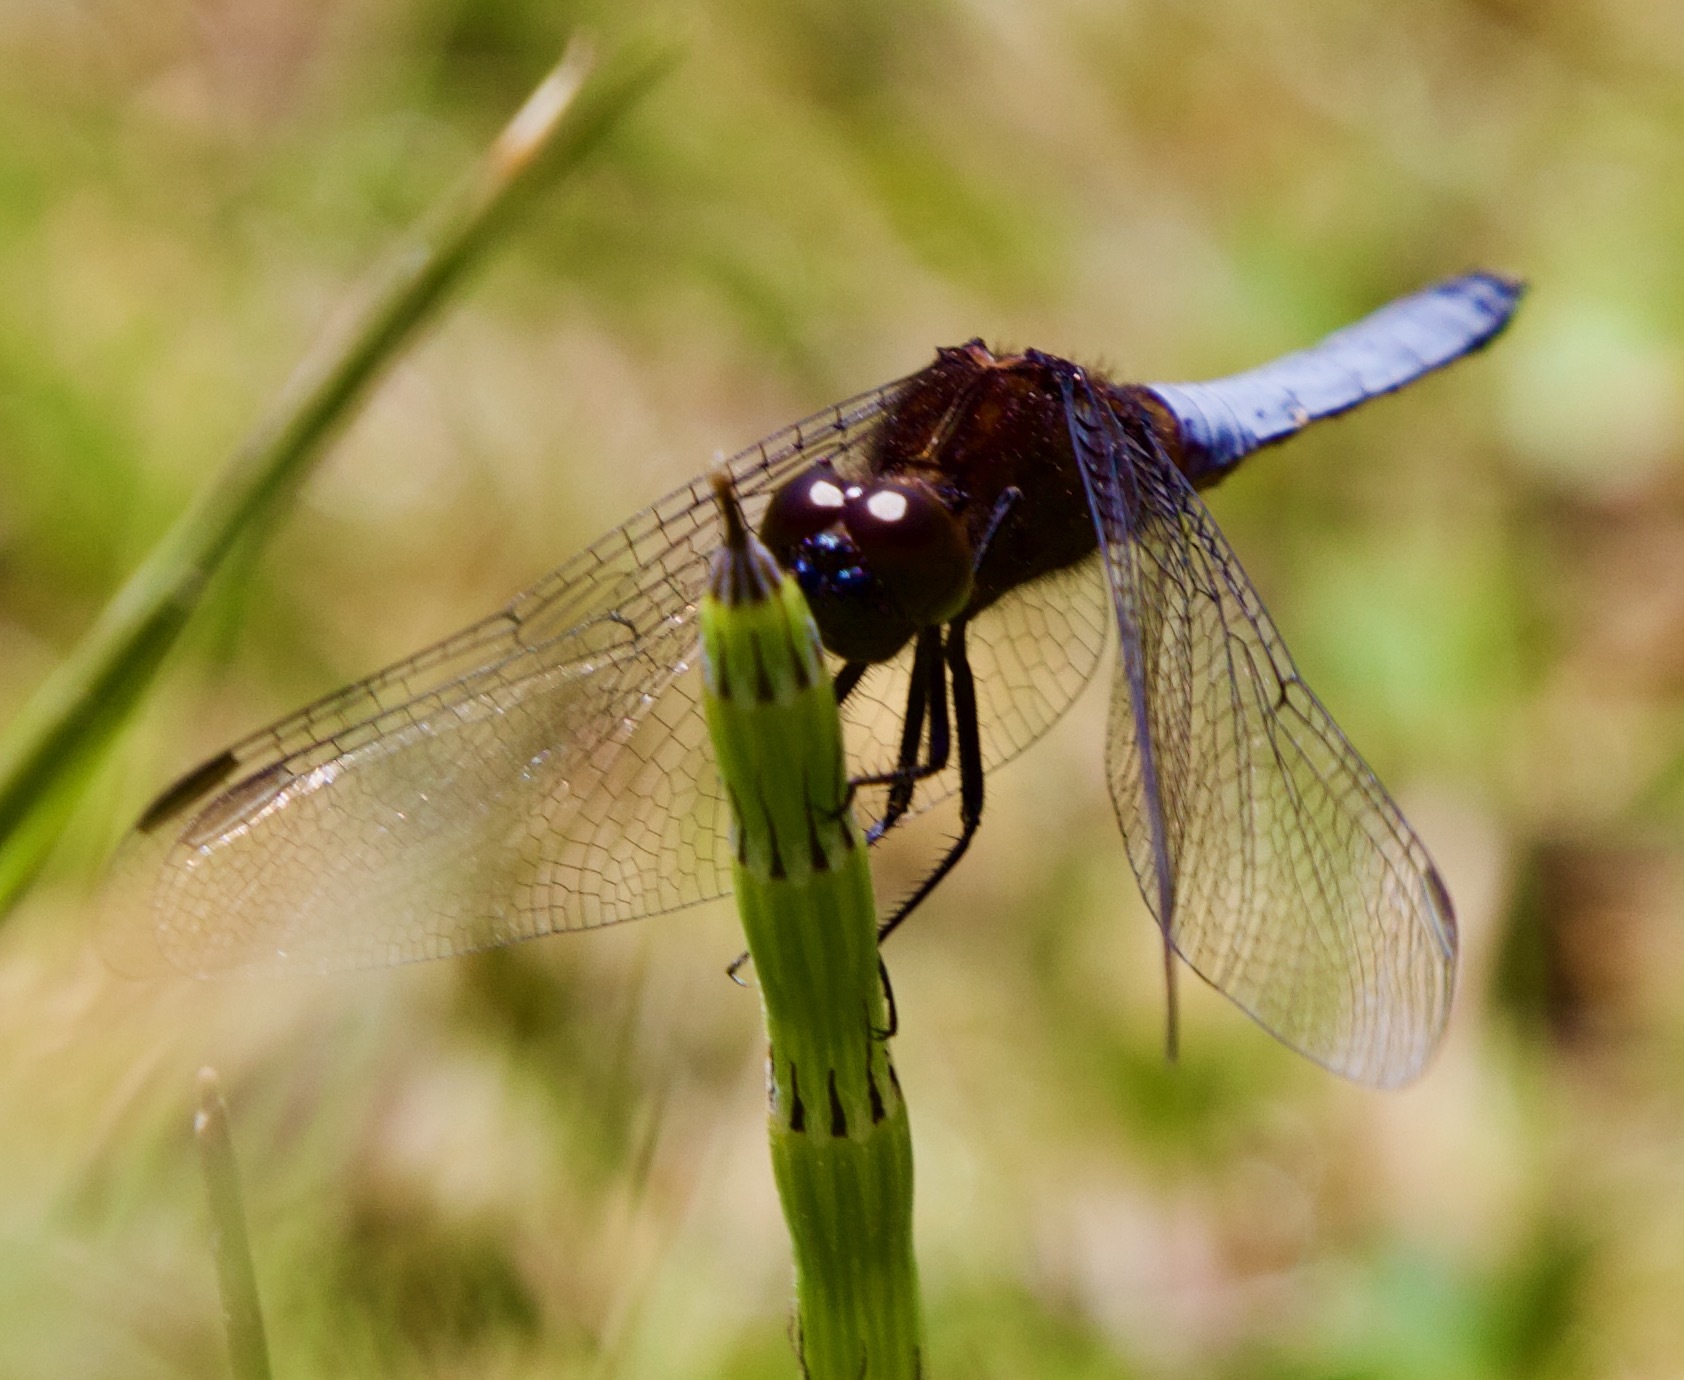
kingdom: Animalia
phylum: Arthropoda
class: Insecta
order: Odonata
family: Libellulidae
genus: Erythrodiplax
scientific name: Erythrodiplax connata
